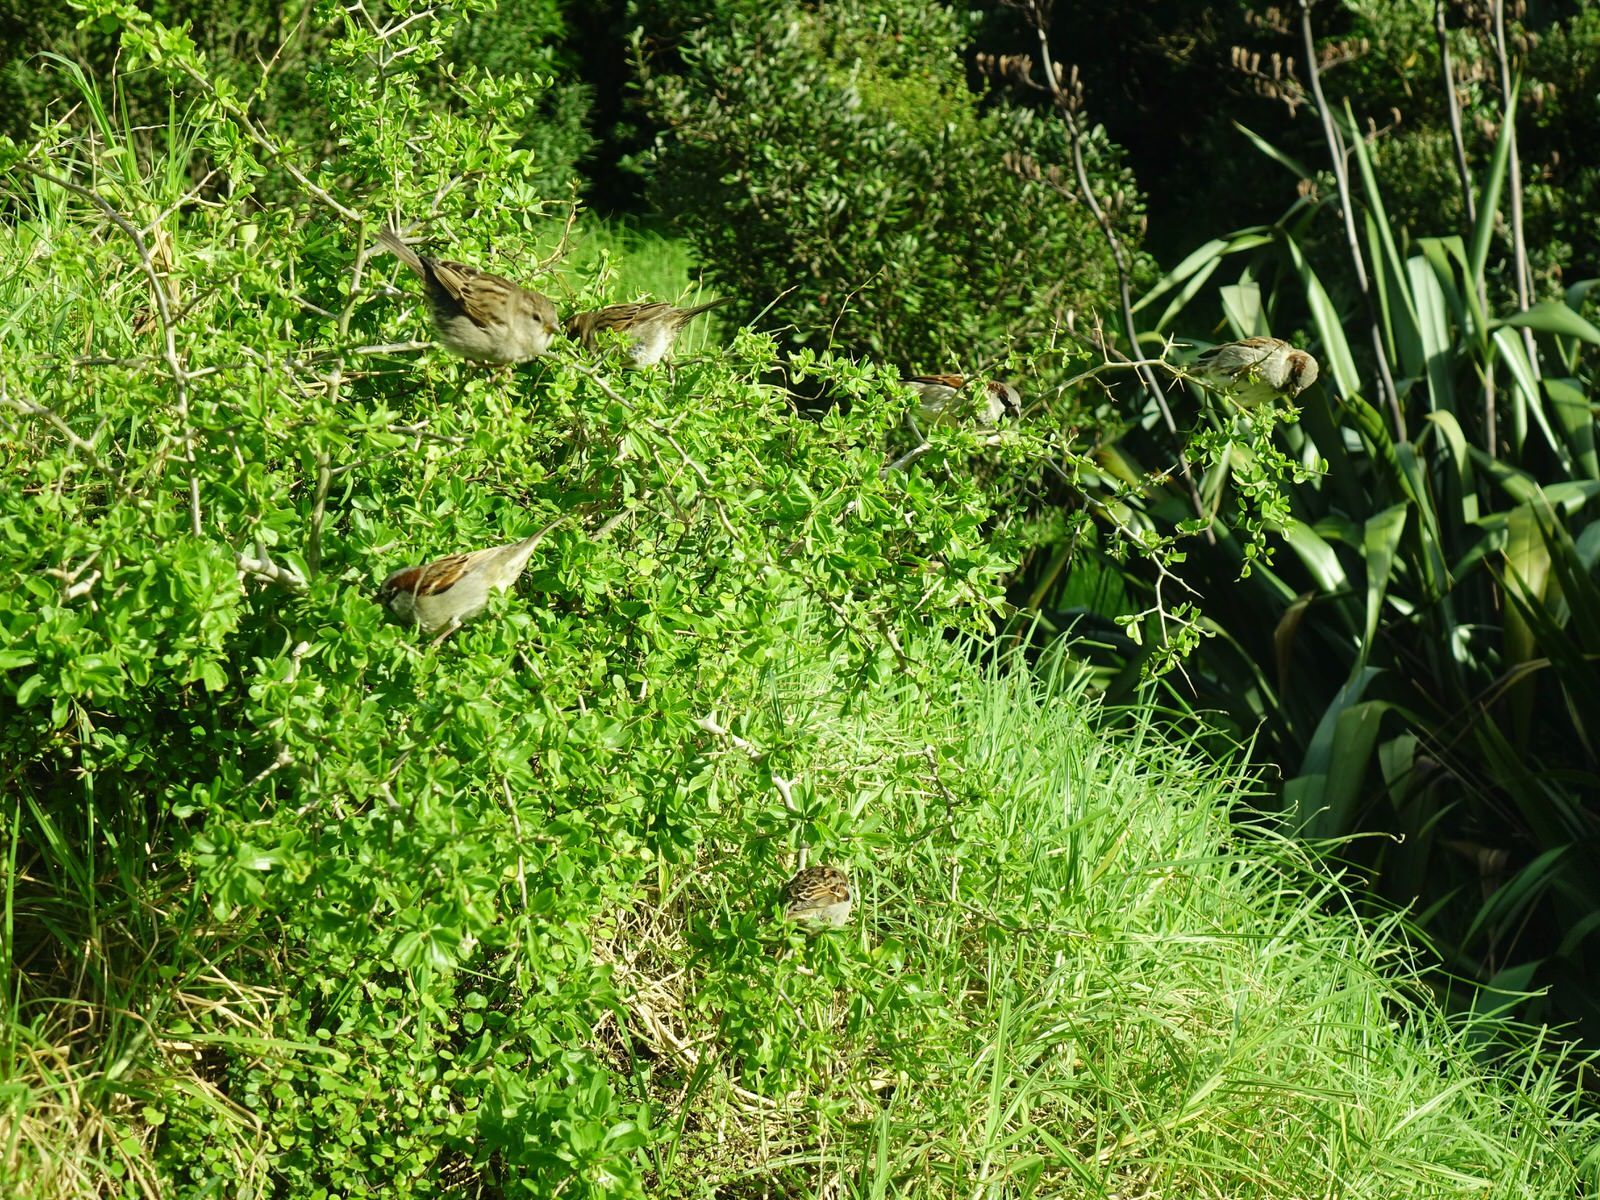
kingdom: Plantae
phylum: Tracheophyta
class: Magnoliopsida
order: Solanales
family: Solanaceae
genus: Lycium
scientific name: Lycium ferocissimum
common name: African boxthorn
